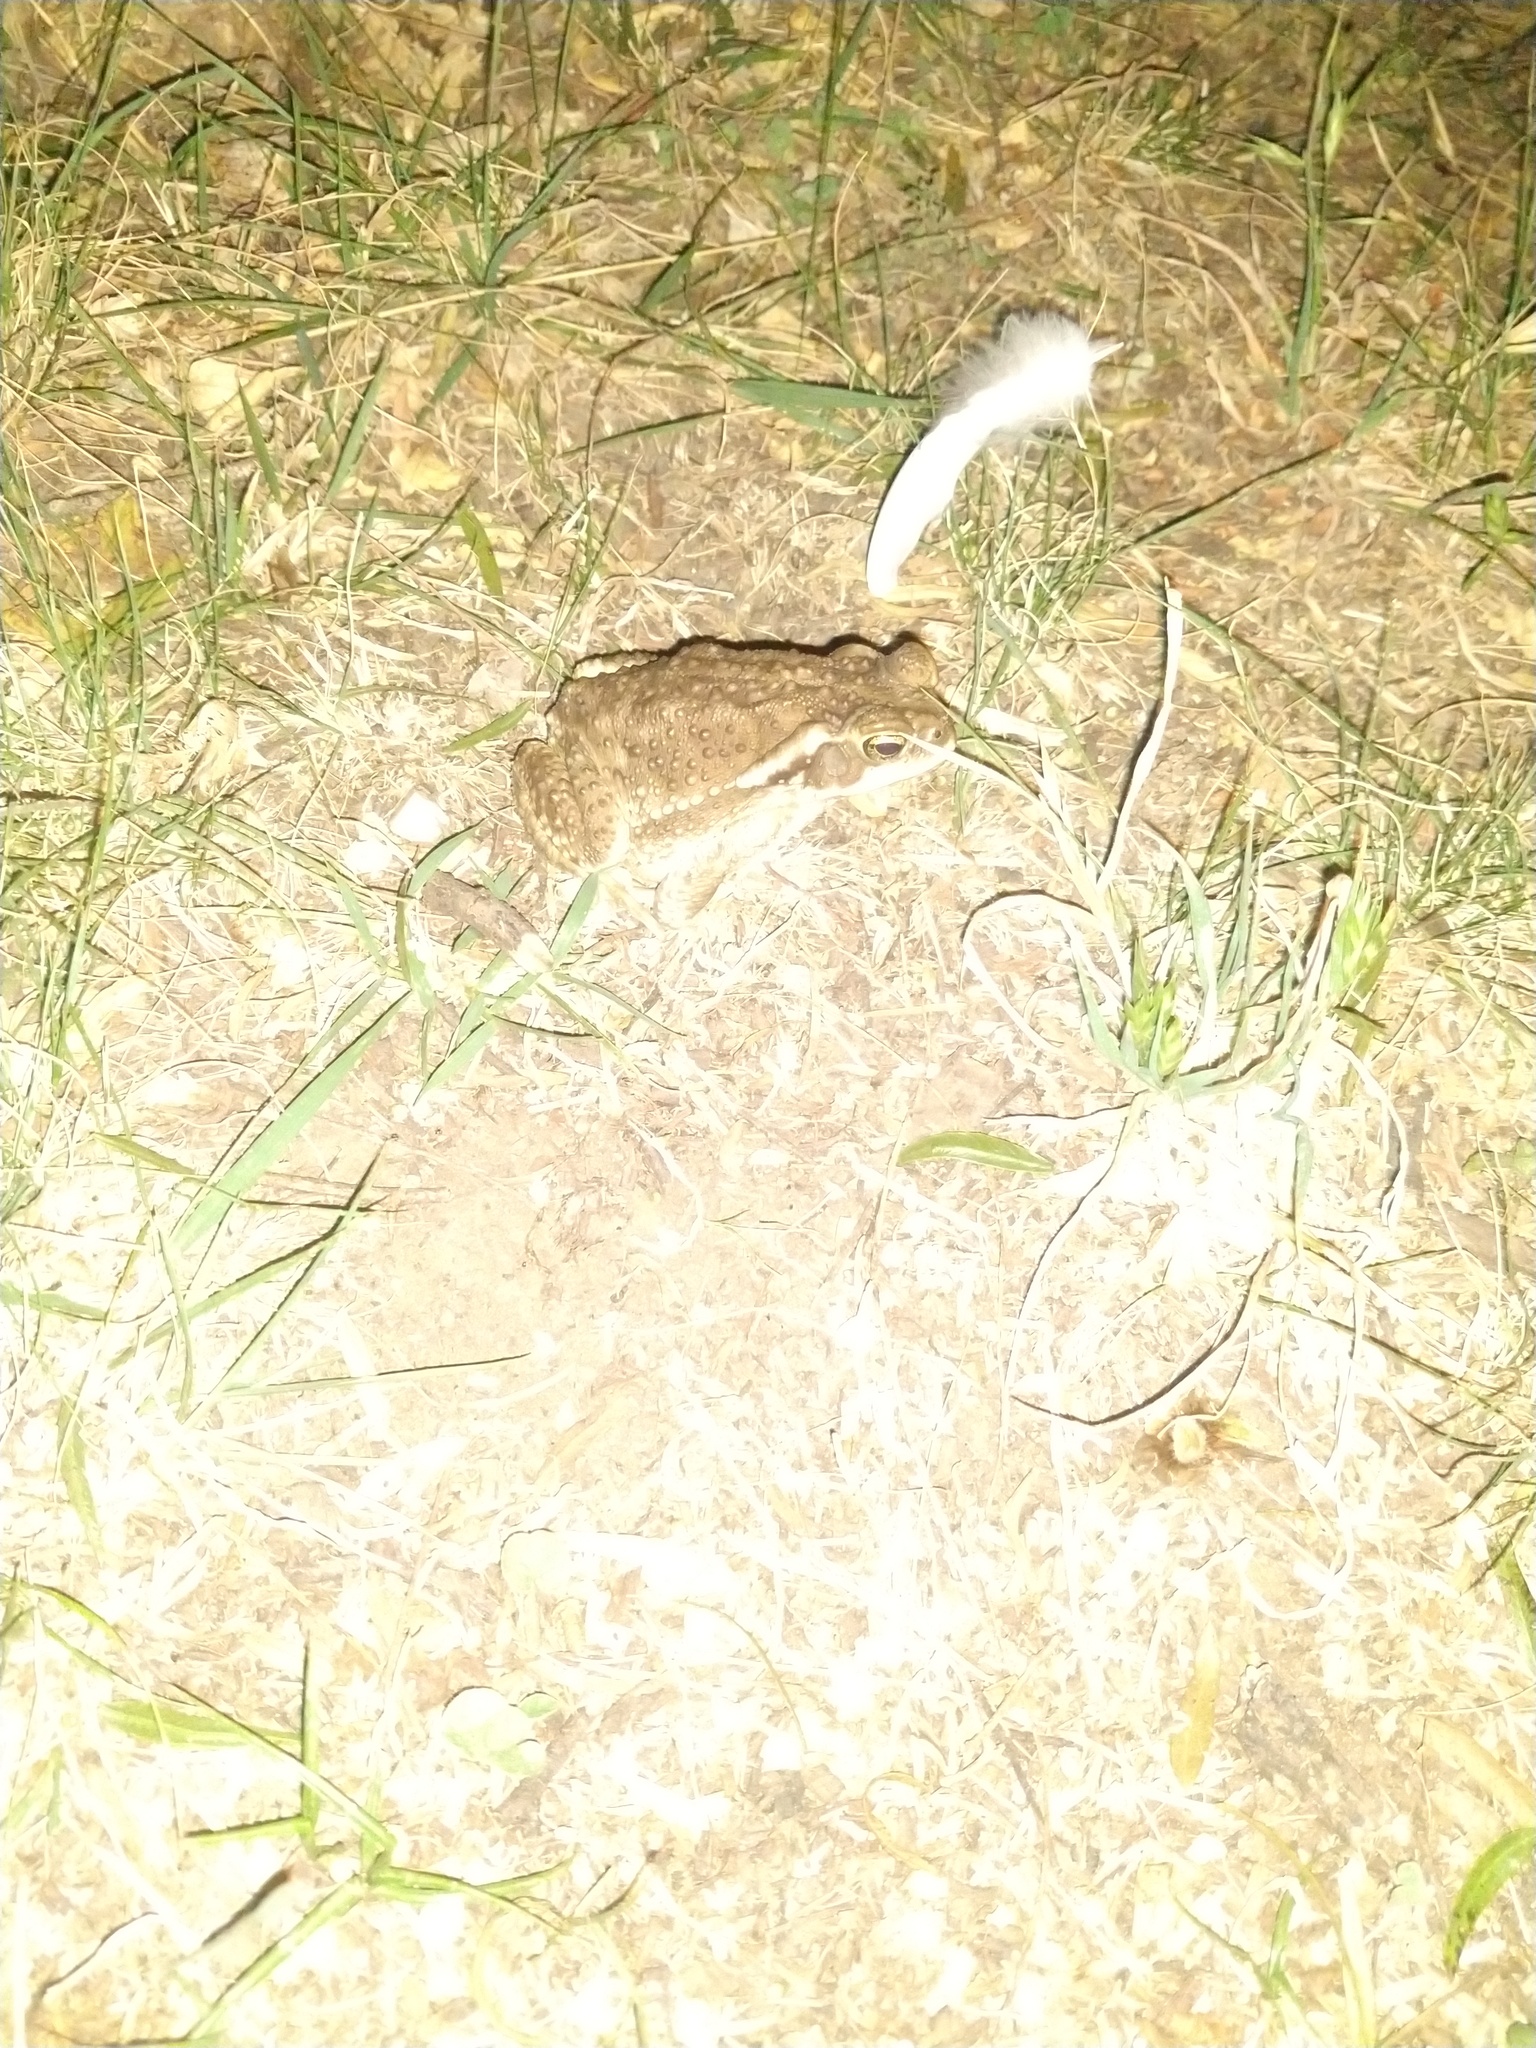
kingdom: Animalia
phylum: Chordata
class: Amphibia
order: Anura
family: Bufonidae
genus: Rhinella
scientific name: Rhinella arenarum
